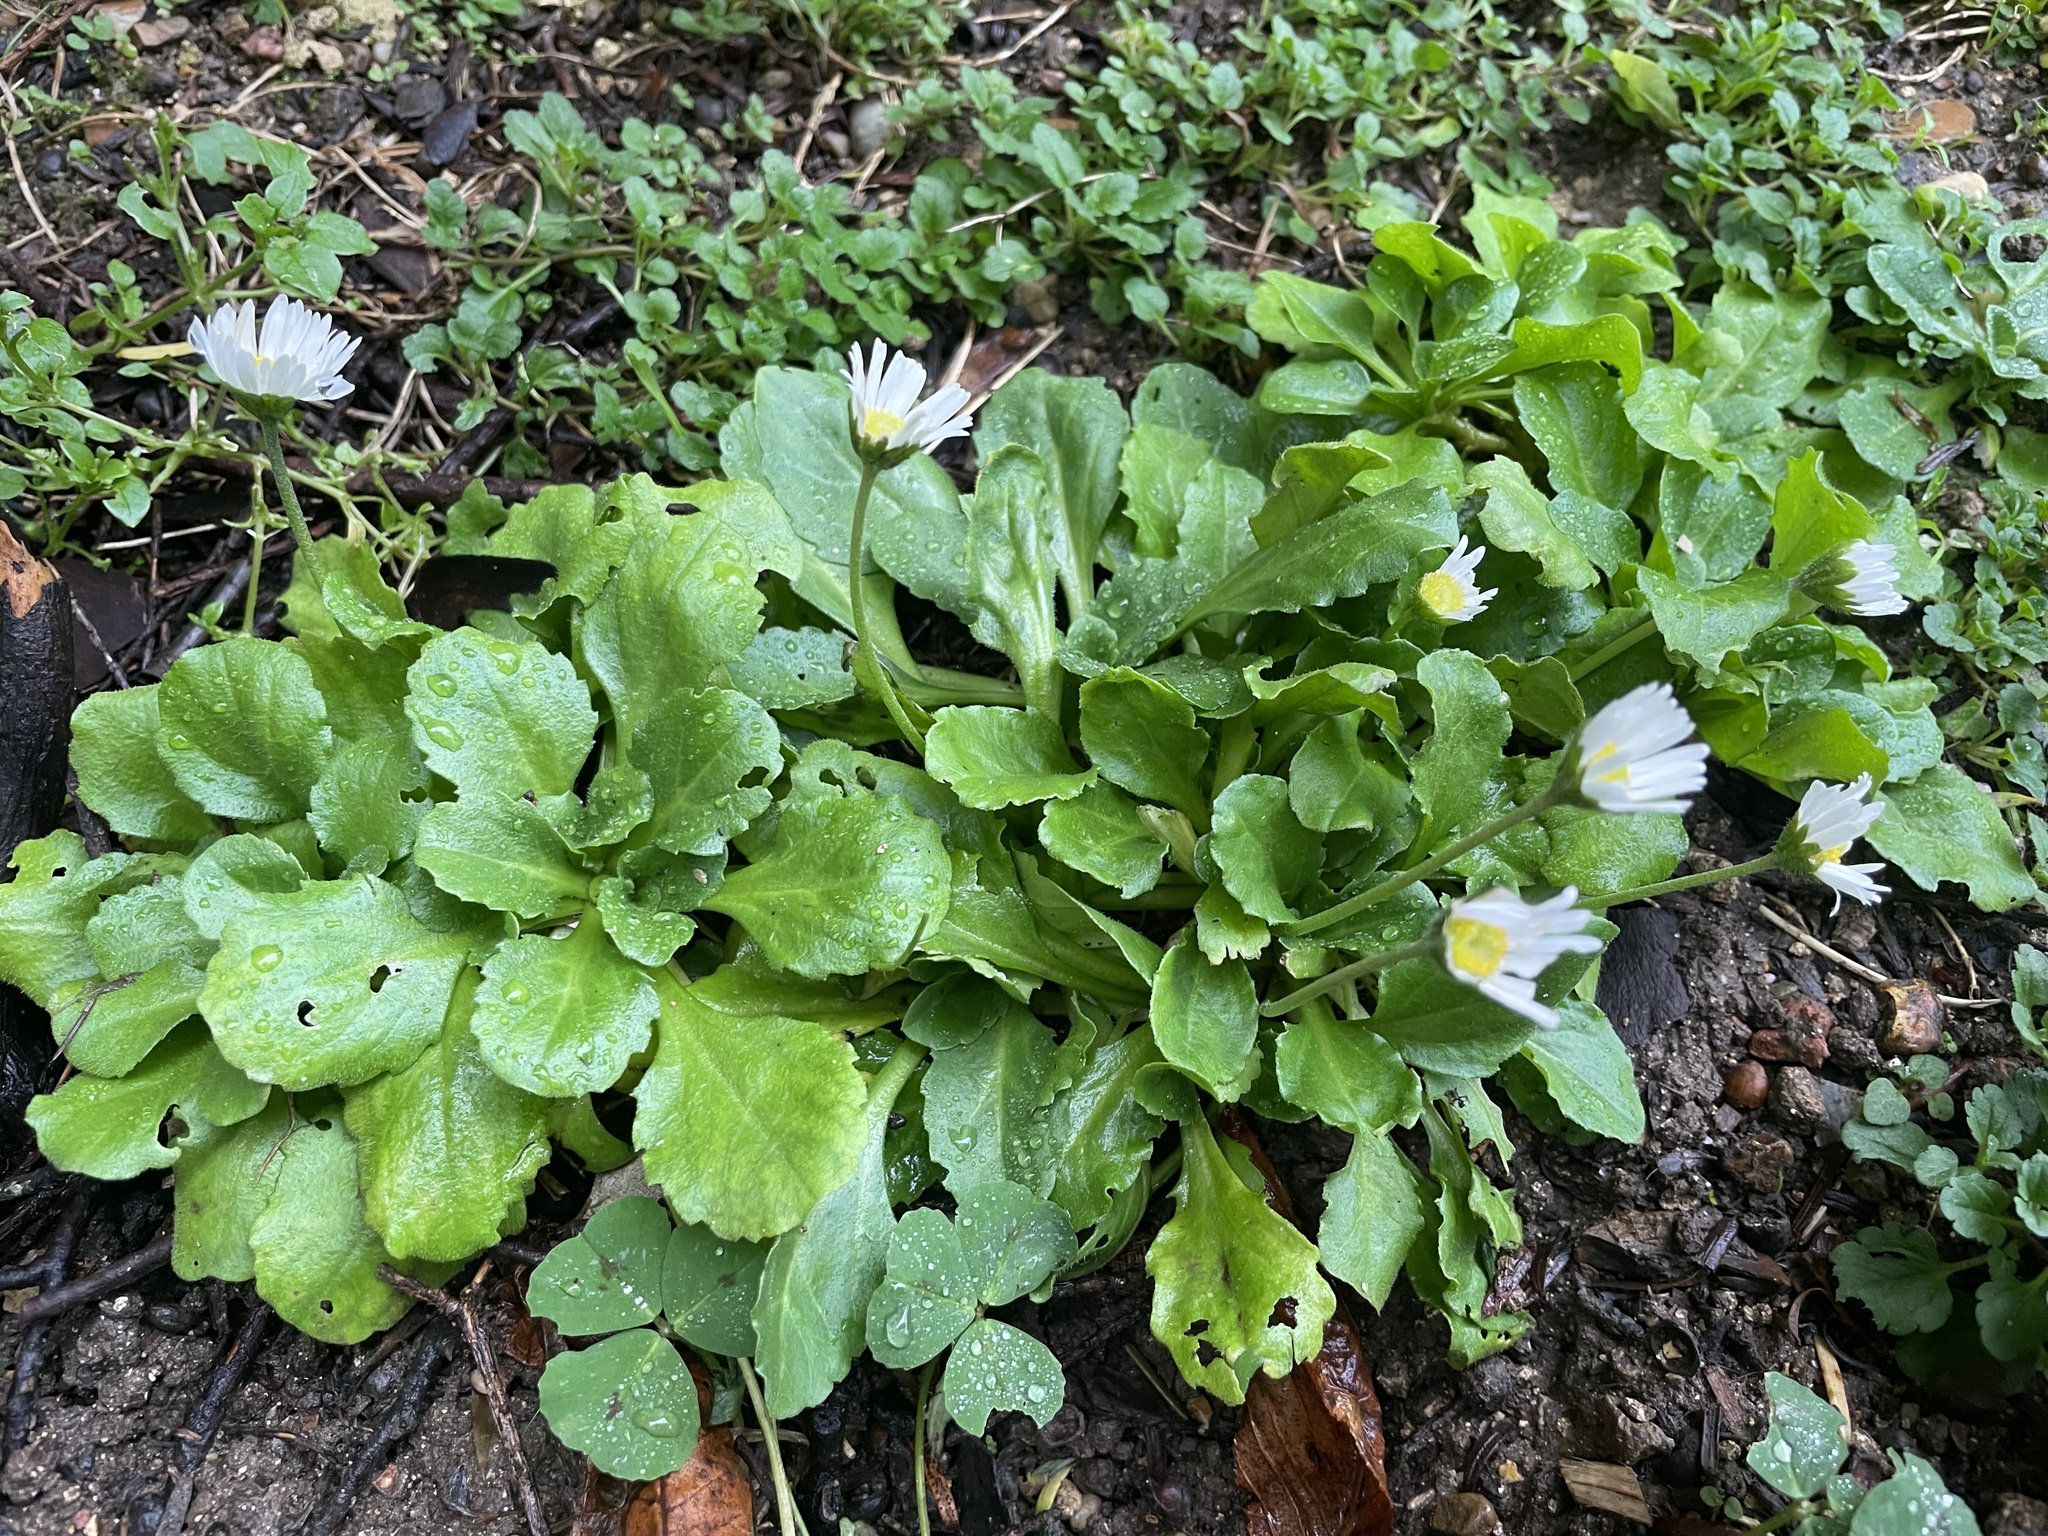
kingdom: Plantae
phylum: Tracheophyta
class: Magnoliopsida
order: Asterales
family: Asteraceae
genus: Bellis
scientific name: Bellis perennis
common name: Lawndaisy
